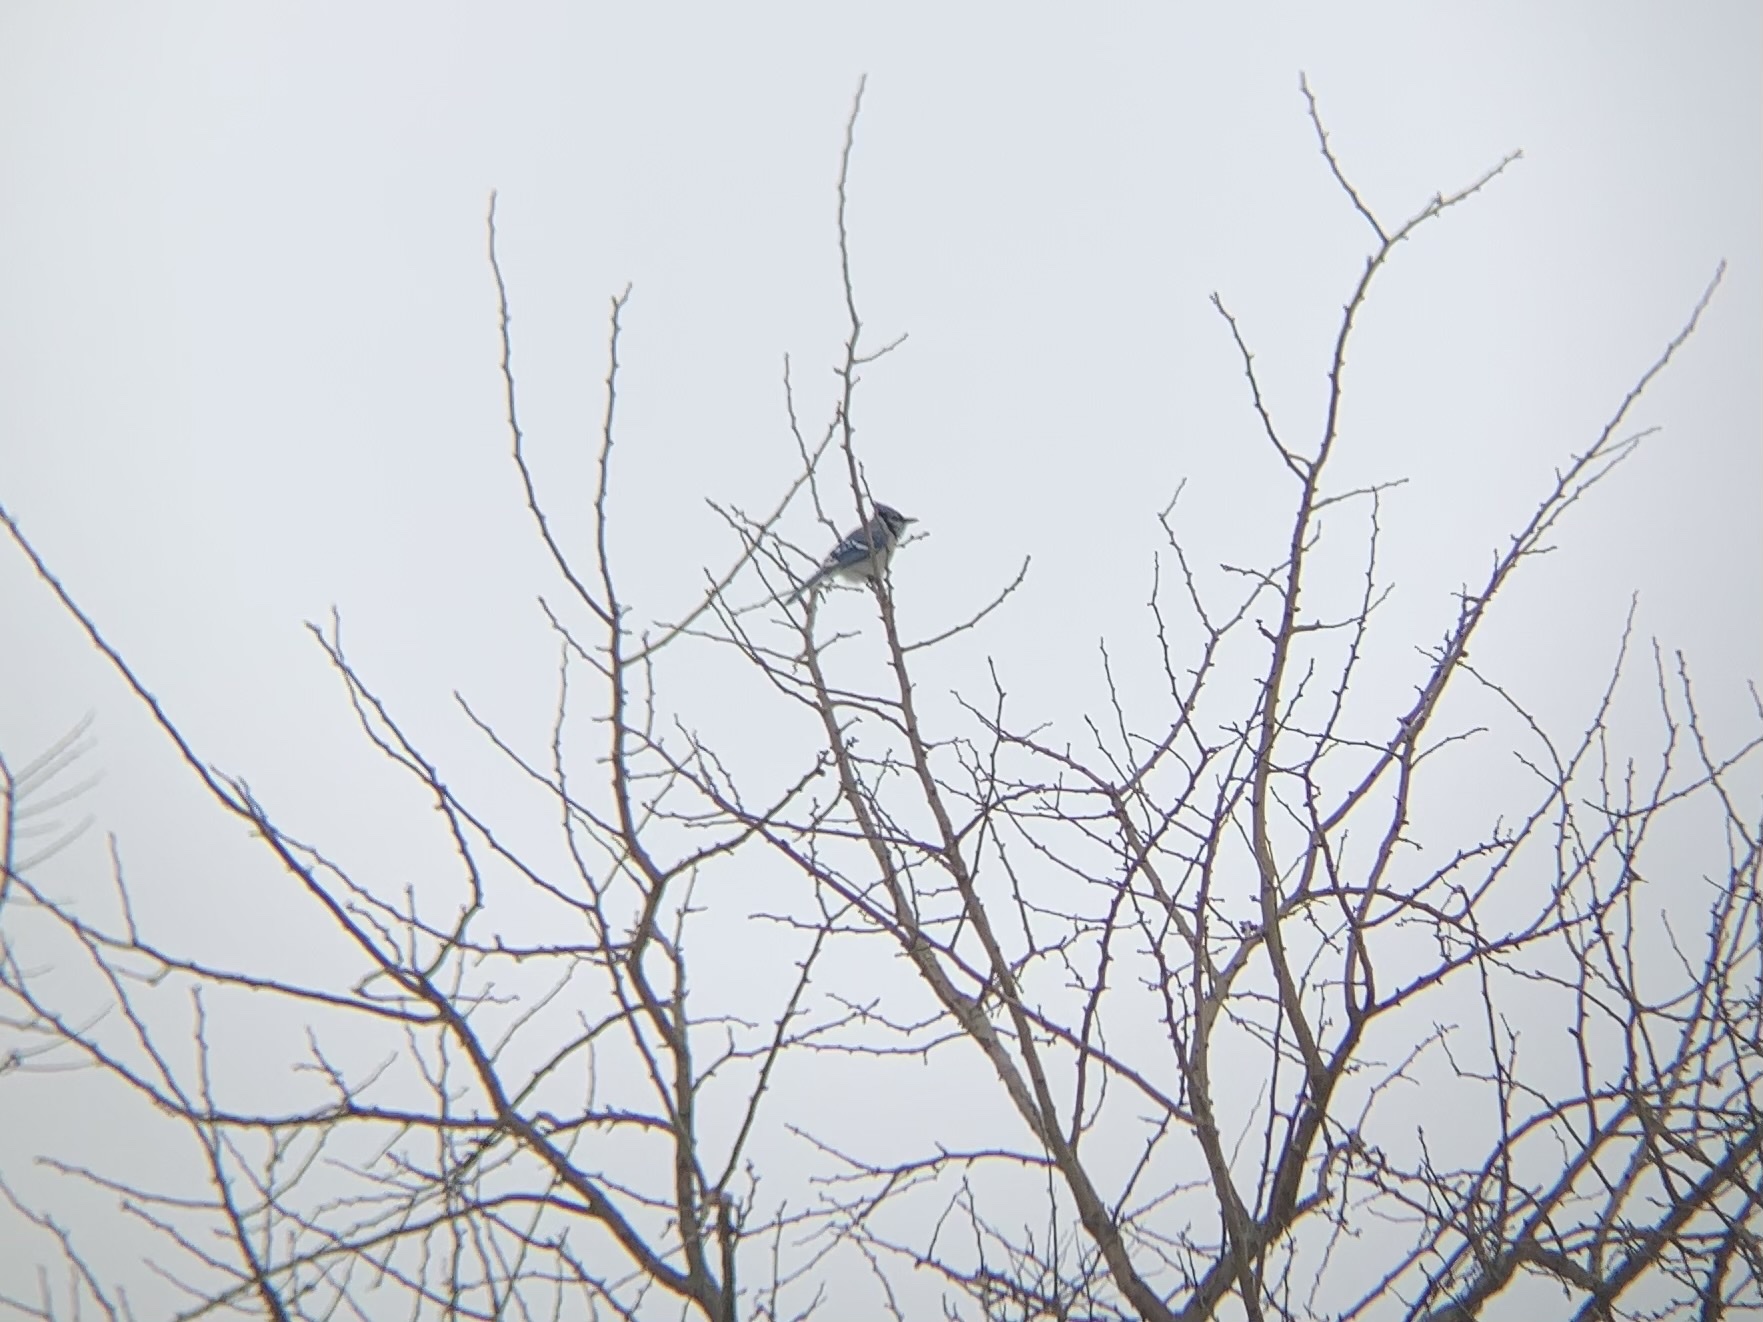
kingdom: Animalia
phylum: Chordata
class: Aves
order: Passeriformes
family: Corvidae
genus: Cyanocitta
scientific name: Cyanocitta cristata
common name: Blue jay
